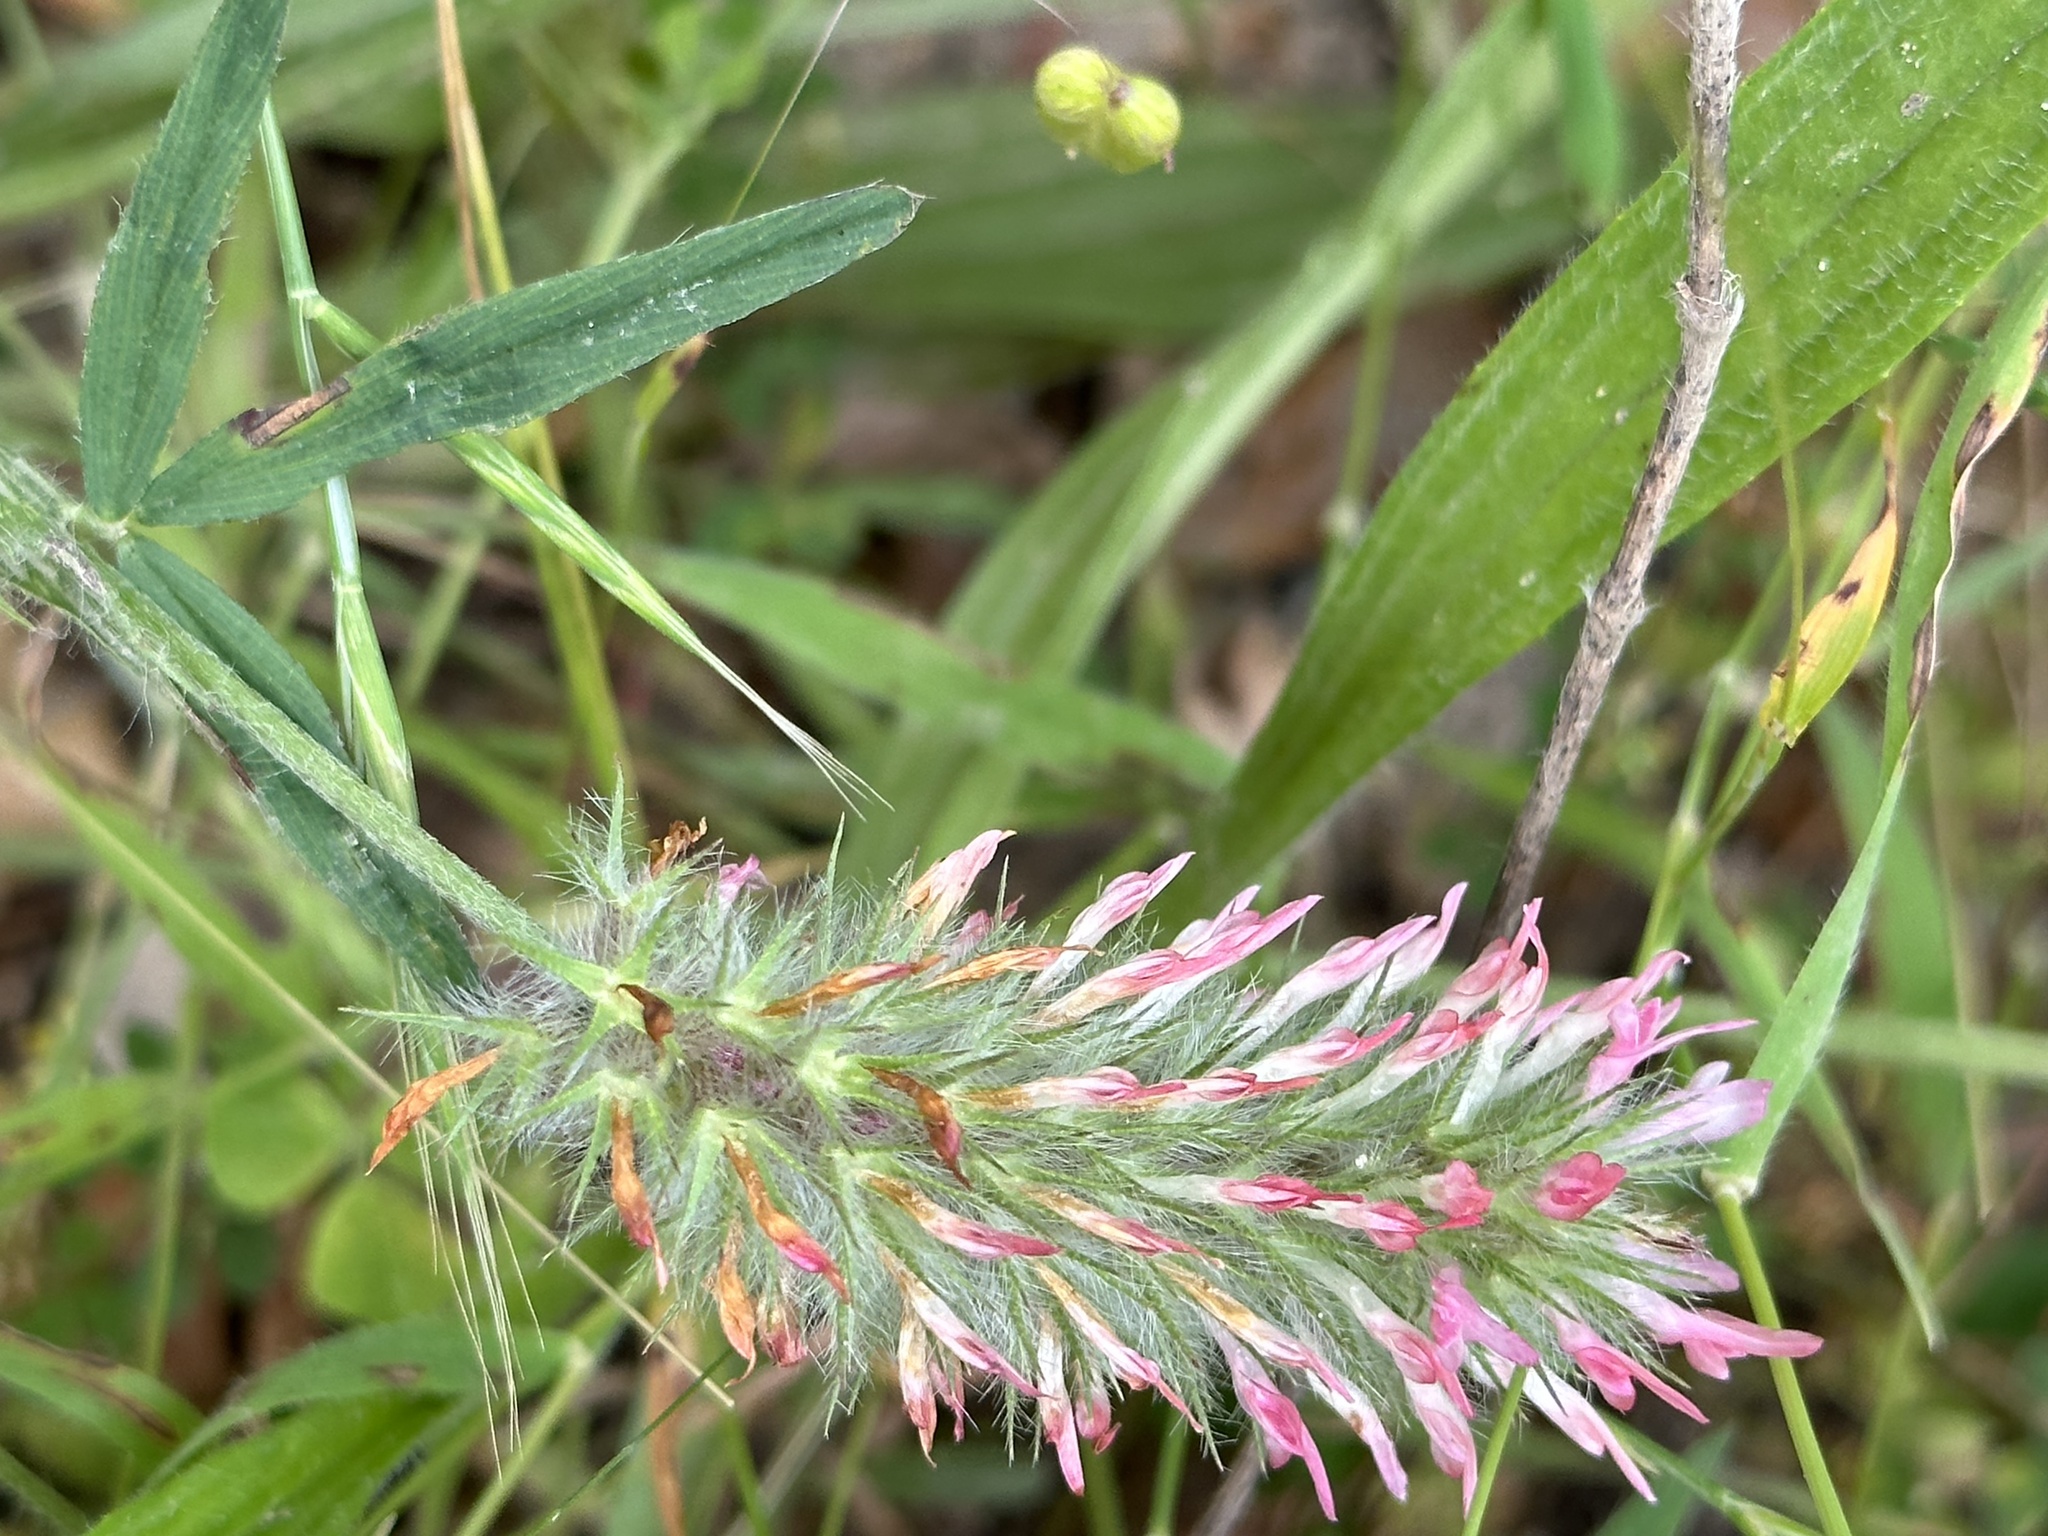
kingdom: Plantae
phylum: Tracheophyta
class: Magnoliopsida
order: Fabales
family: Fabaceae
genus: Trifolium
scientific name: Trifolium angustifolium
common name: Narrow clover
